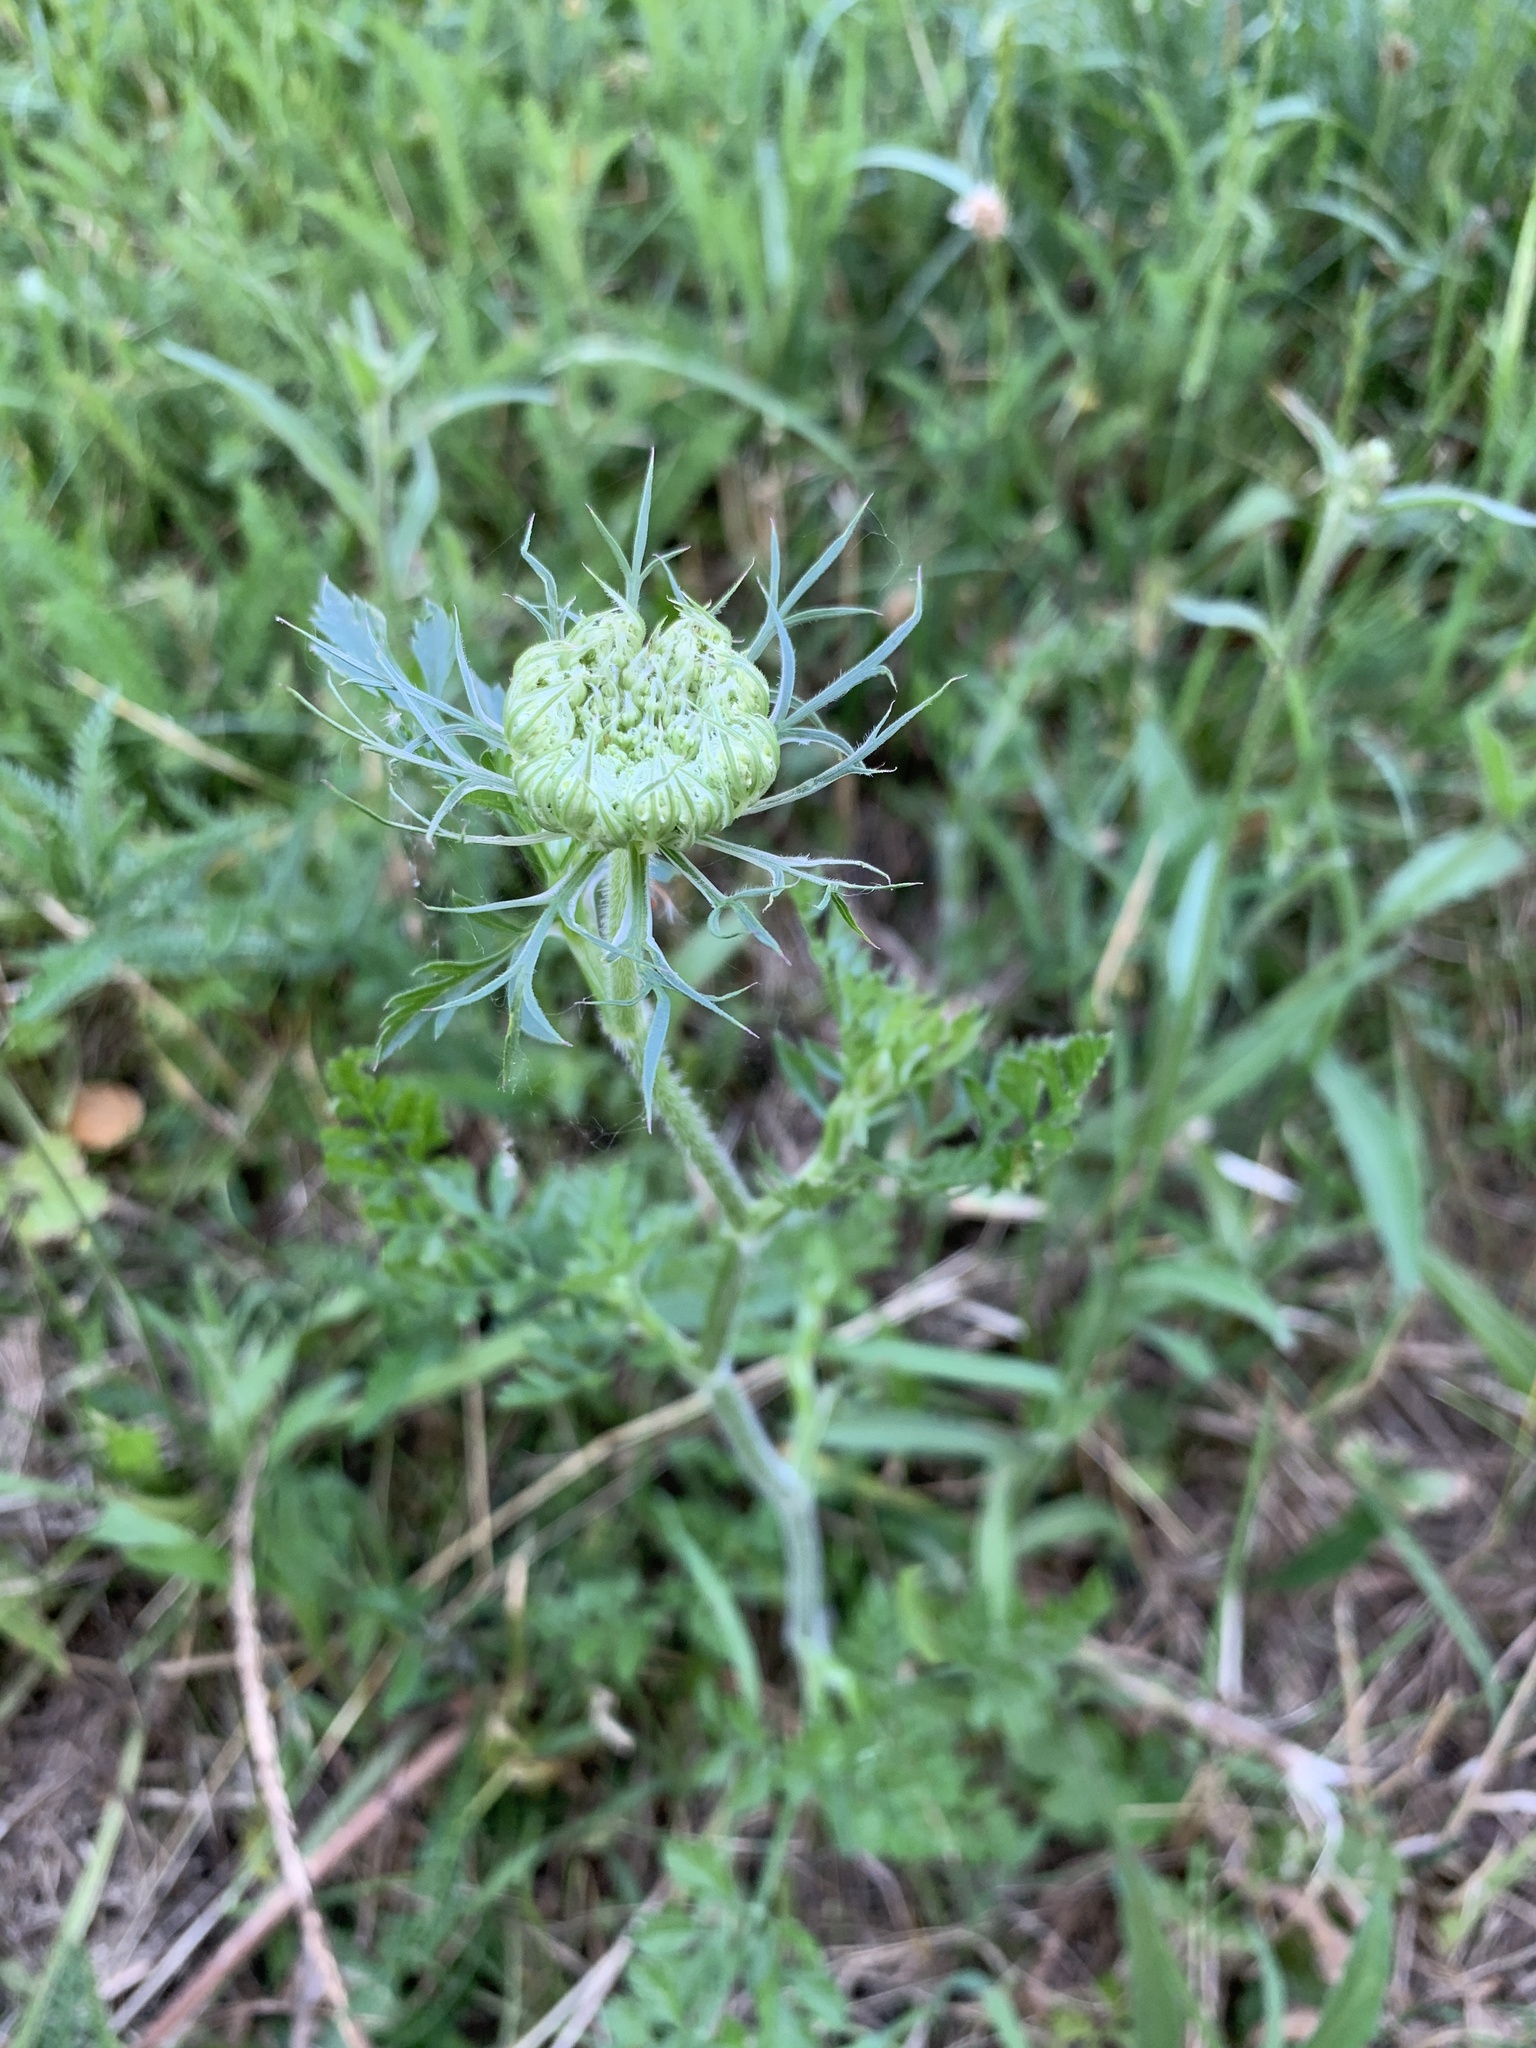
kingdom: Plantae
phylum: Tracheophyta
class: Magnoliopsida
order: Apiales
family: Apiaceae
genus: Daucus
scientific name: Daucus carota
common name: Wild carrot
